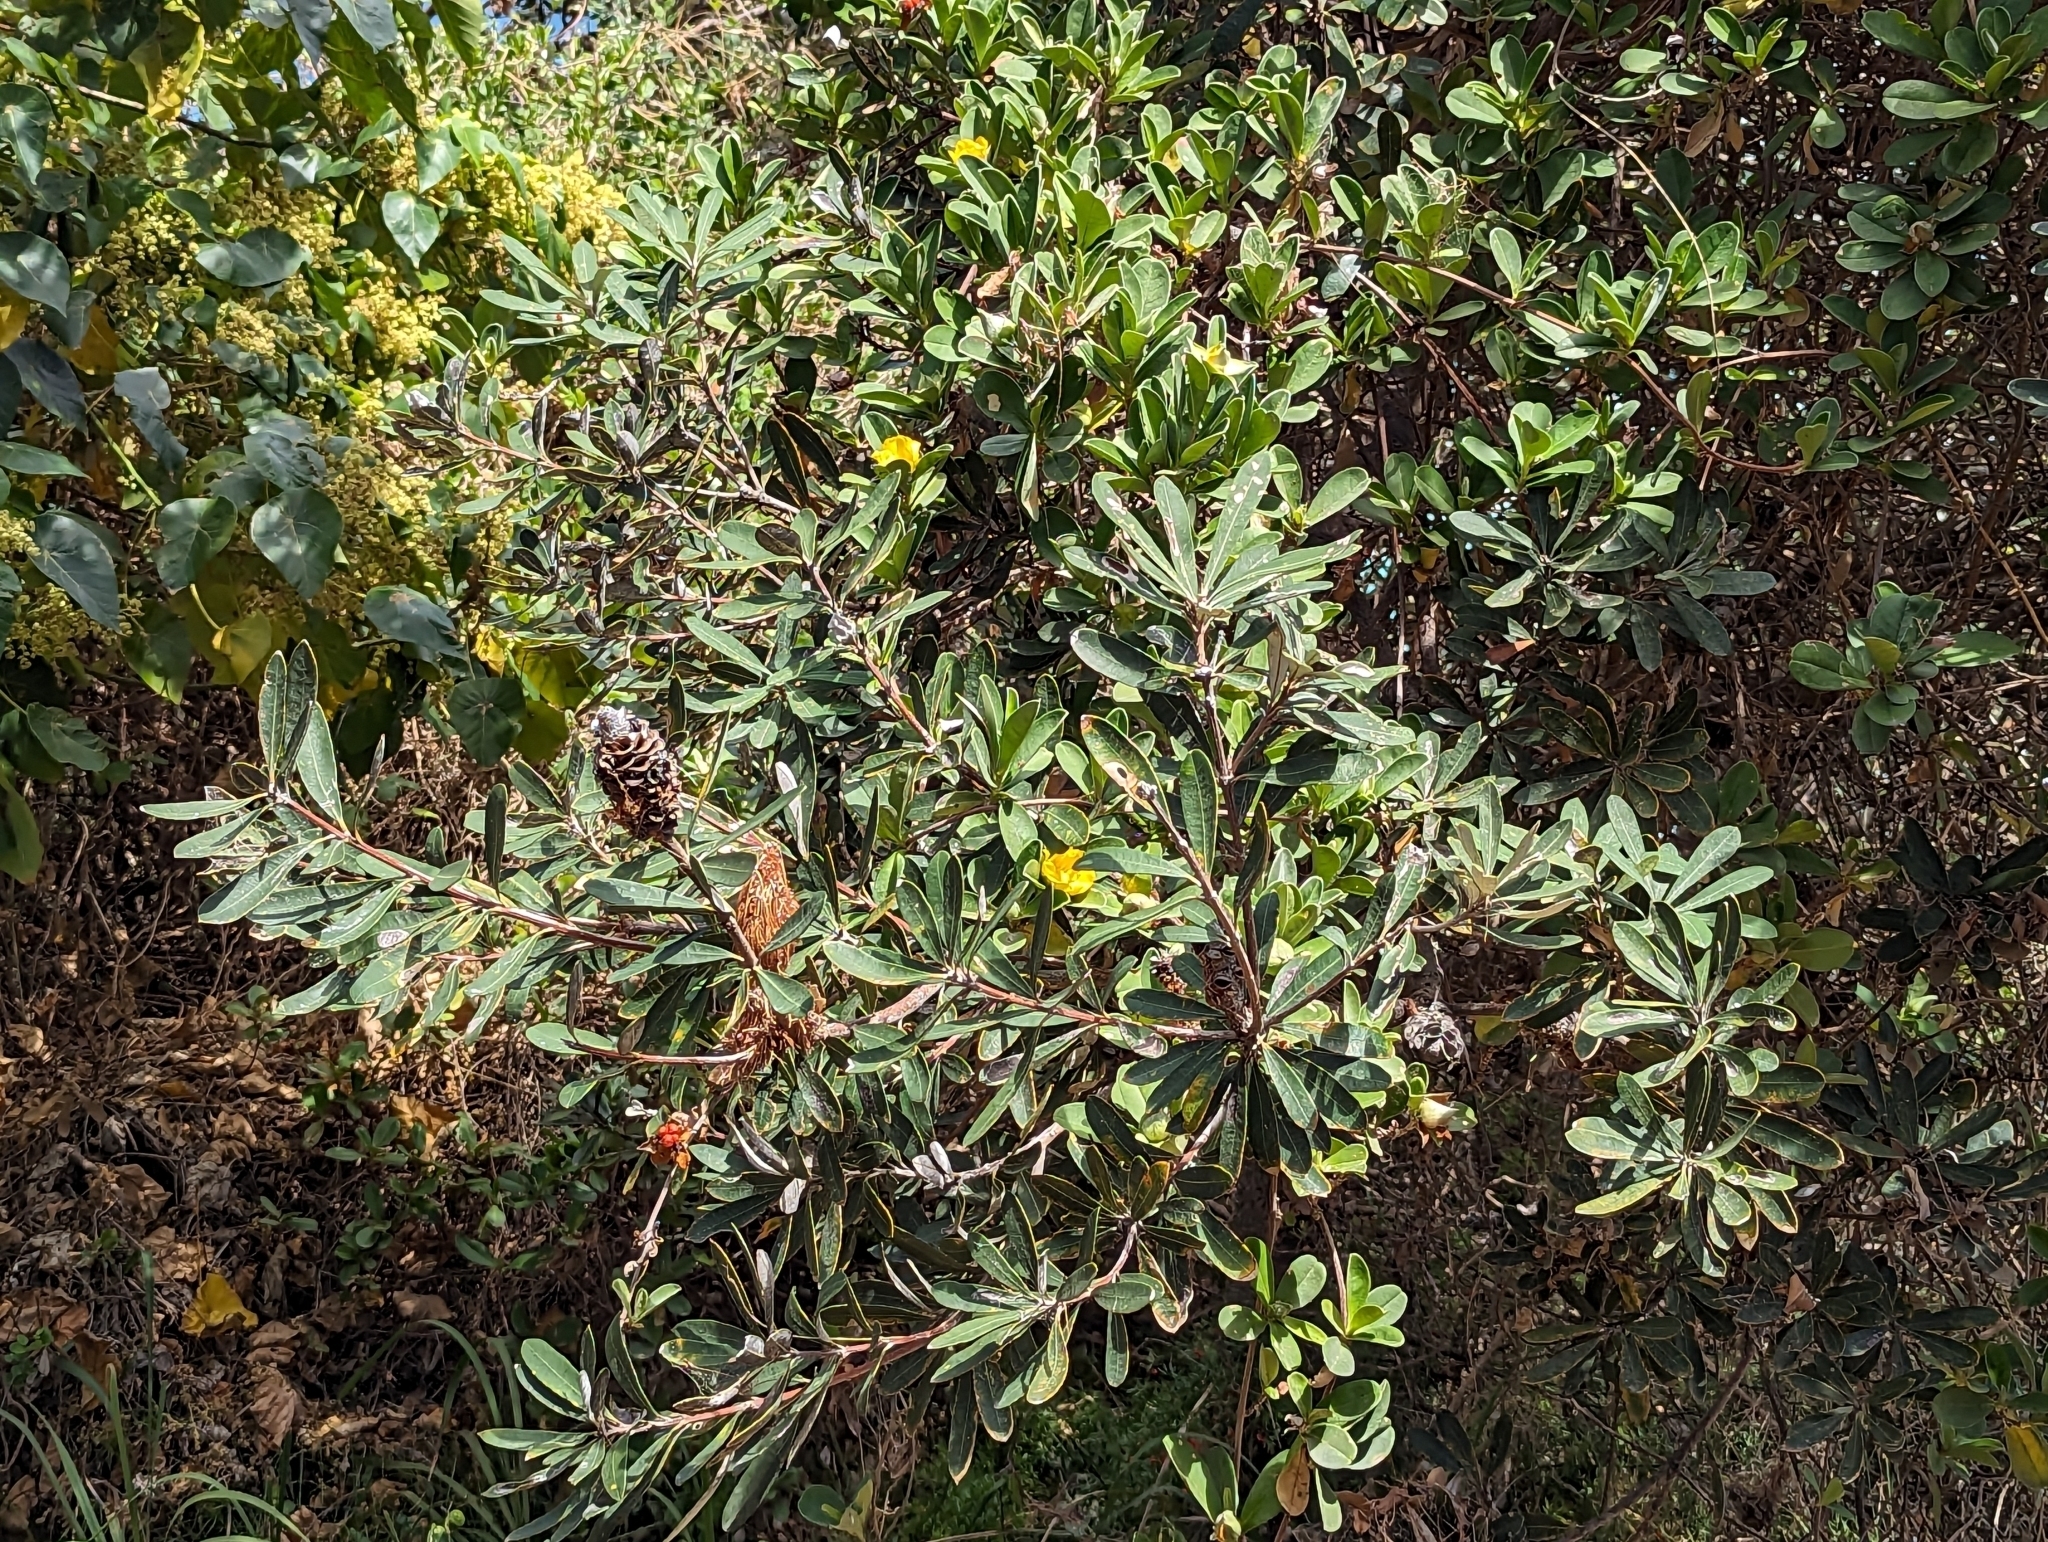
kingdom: Plantae
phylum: Tracheophyta
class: Magnoliopsida
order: Proteales
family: Proteaceae
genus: Banksia
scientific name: Banksia integrifolia
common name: White-honeysuckle
